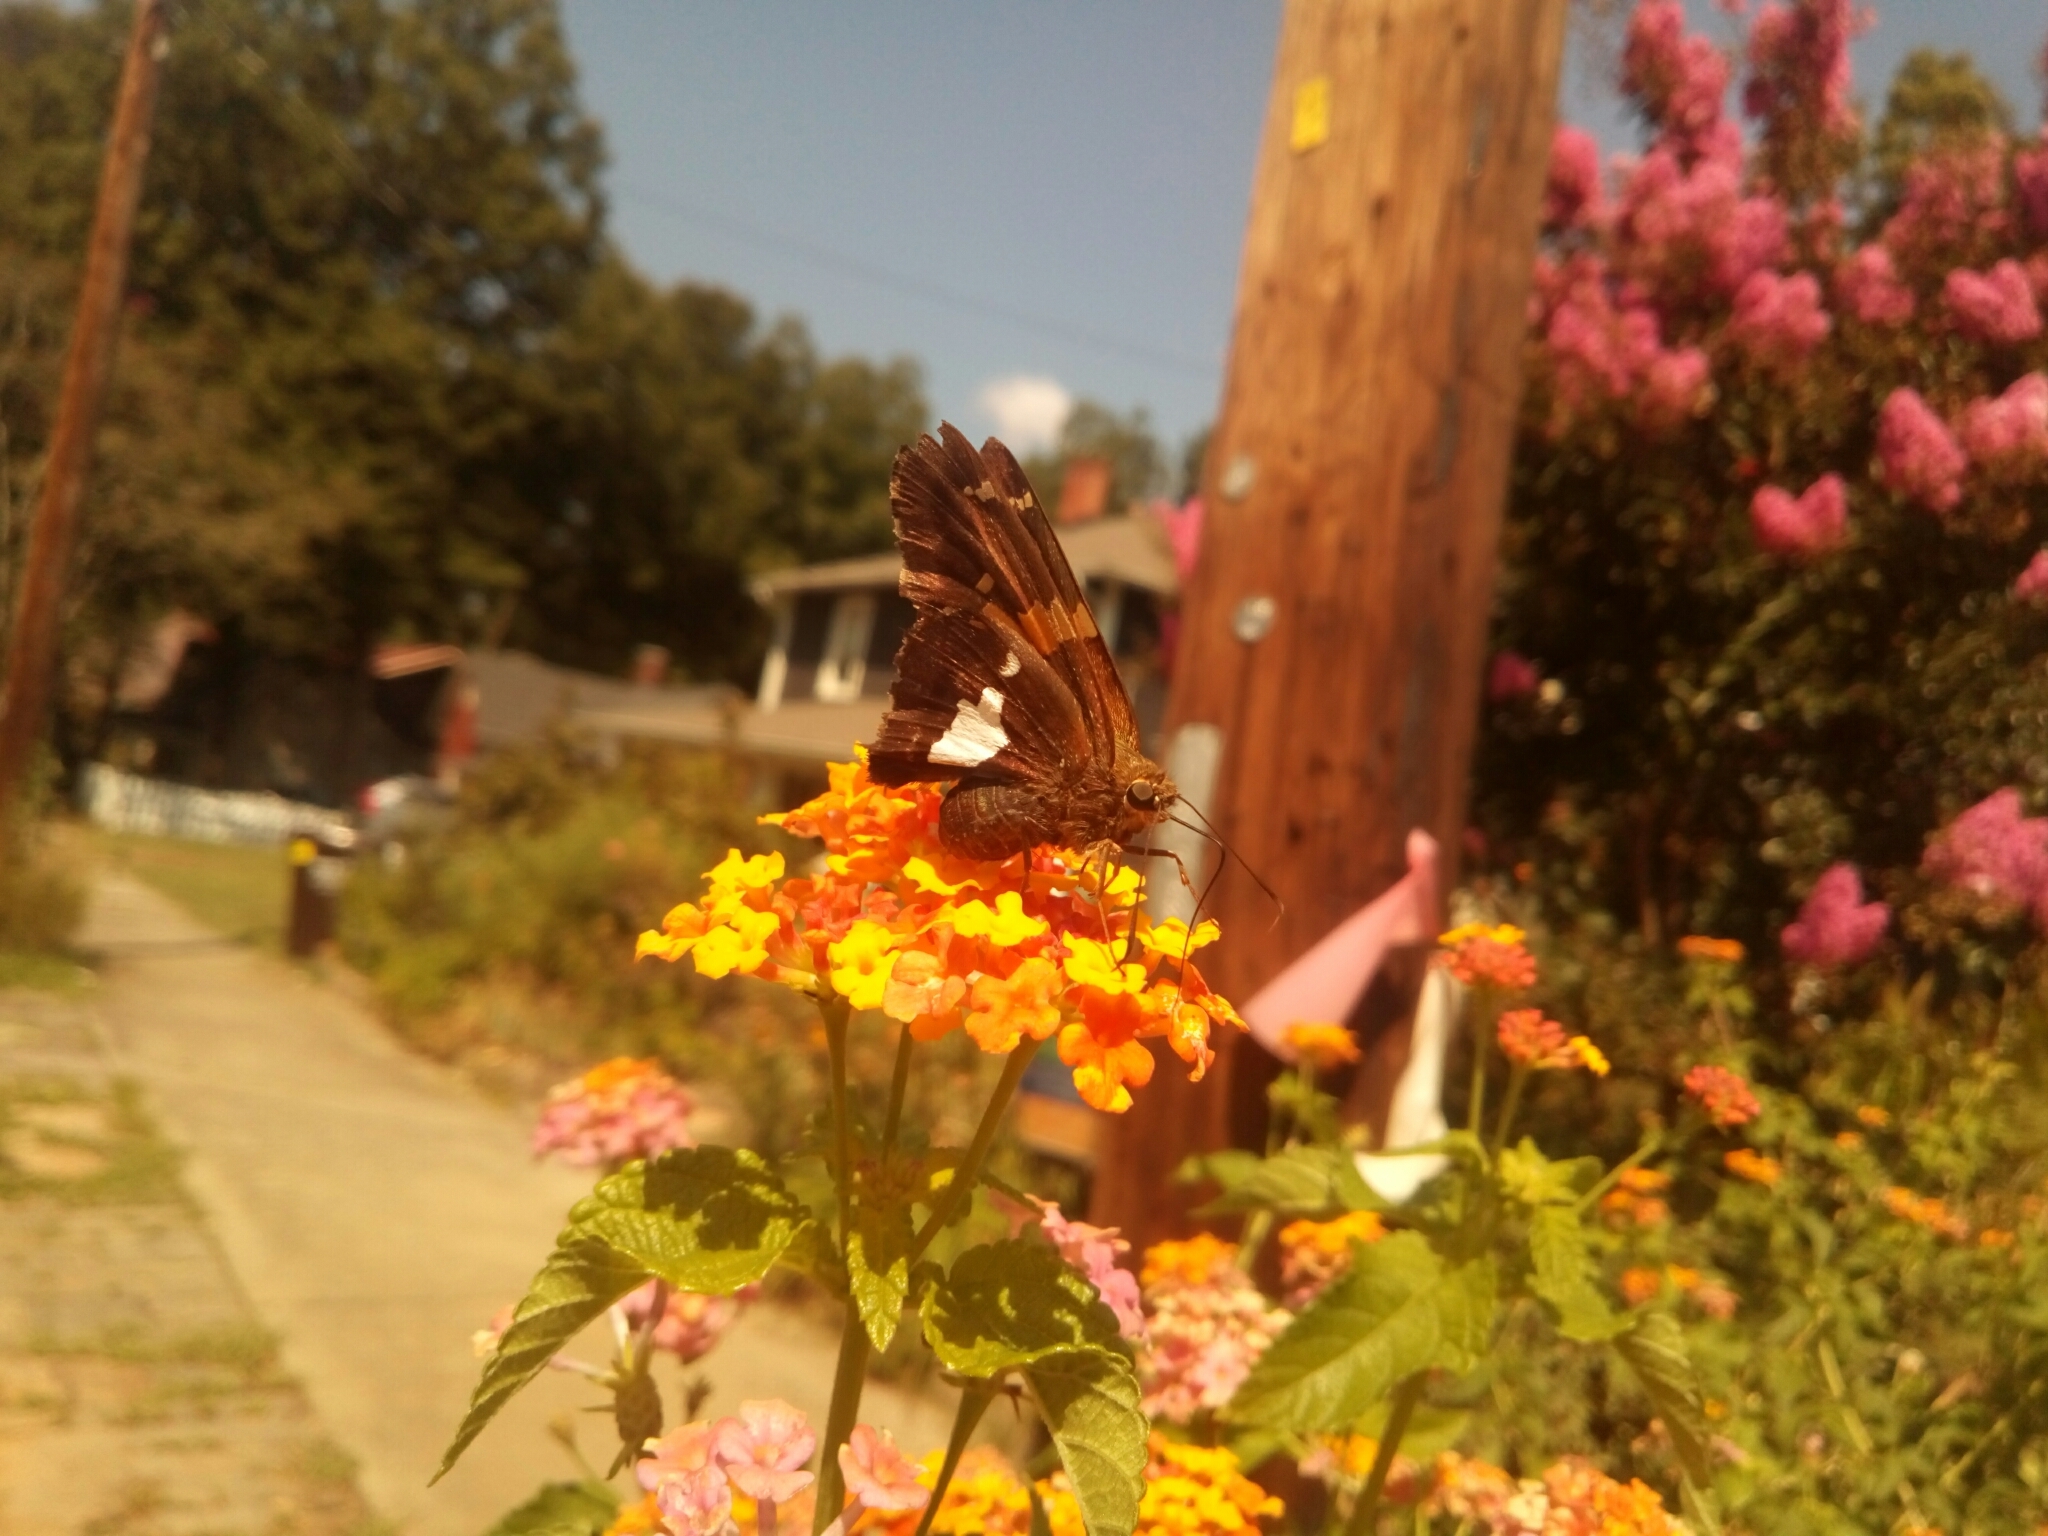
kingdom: Animalia
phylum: Arthropoda
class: Insecta
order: Lepidoptera
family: Hesperiidae
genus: Epargyreus
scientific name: Epargyreus clarus
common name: Silver-spotted skipper
